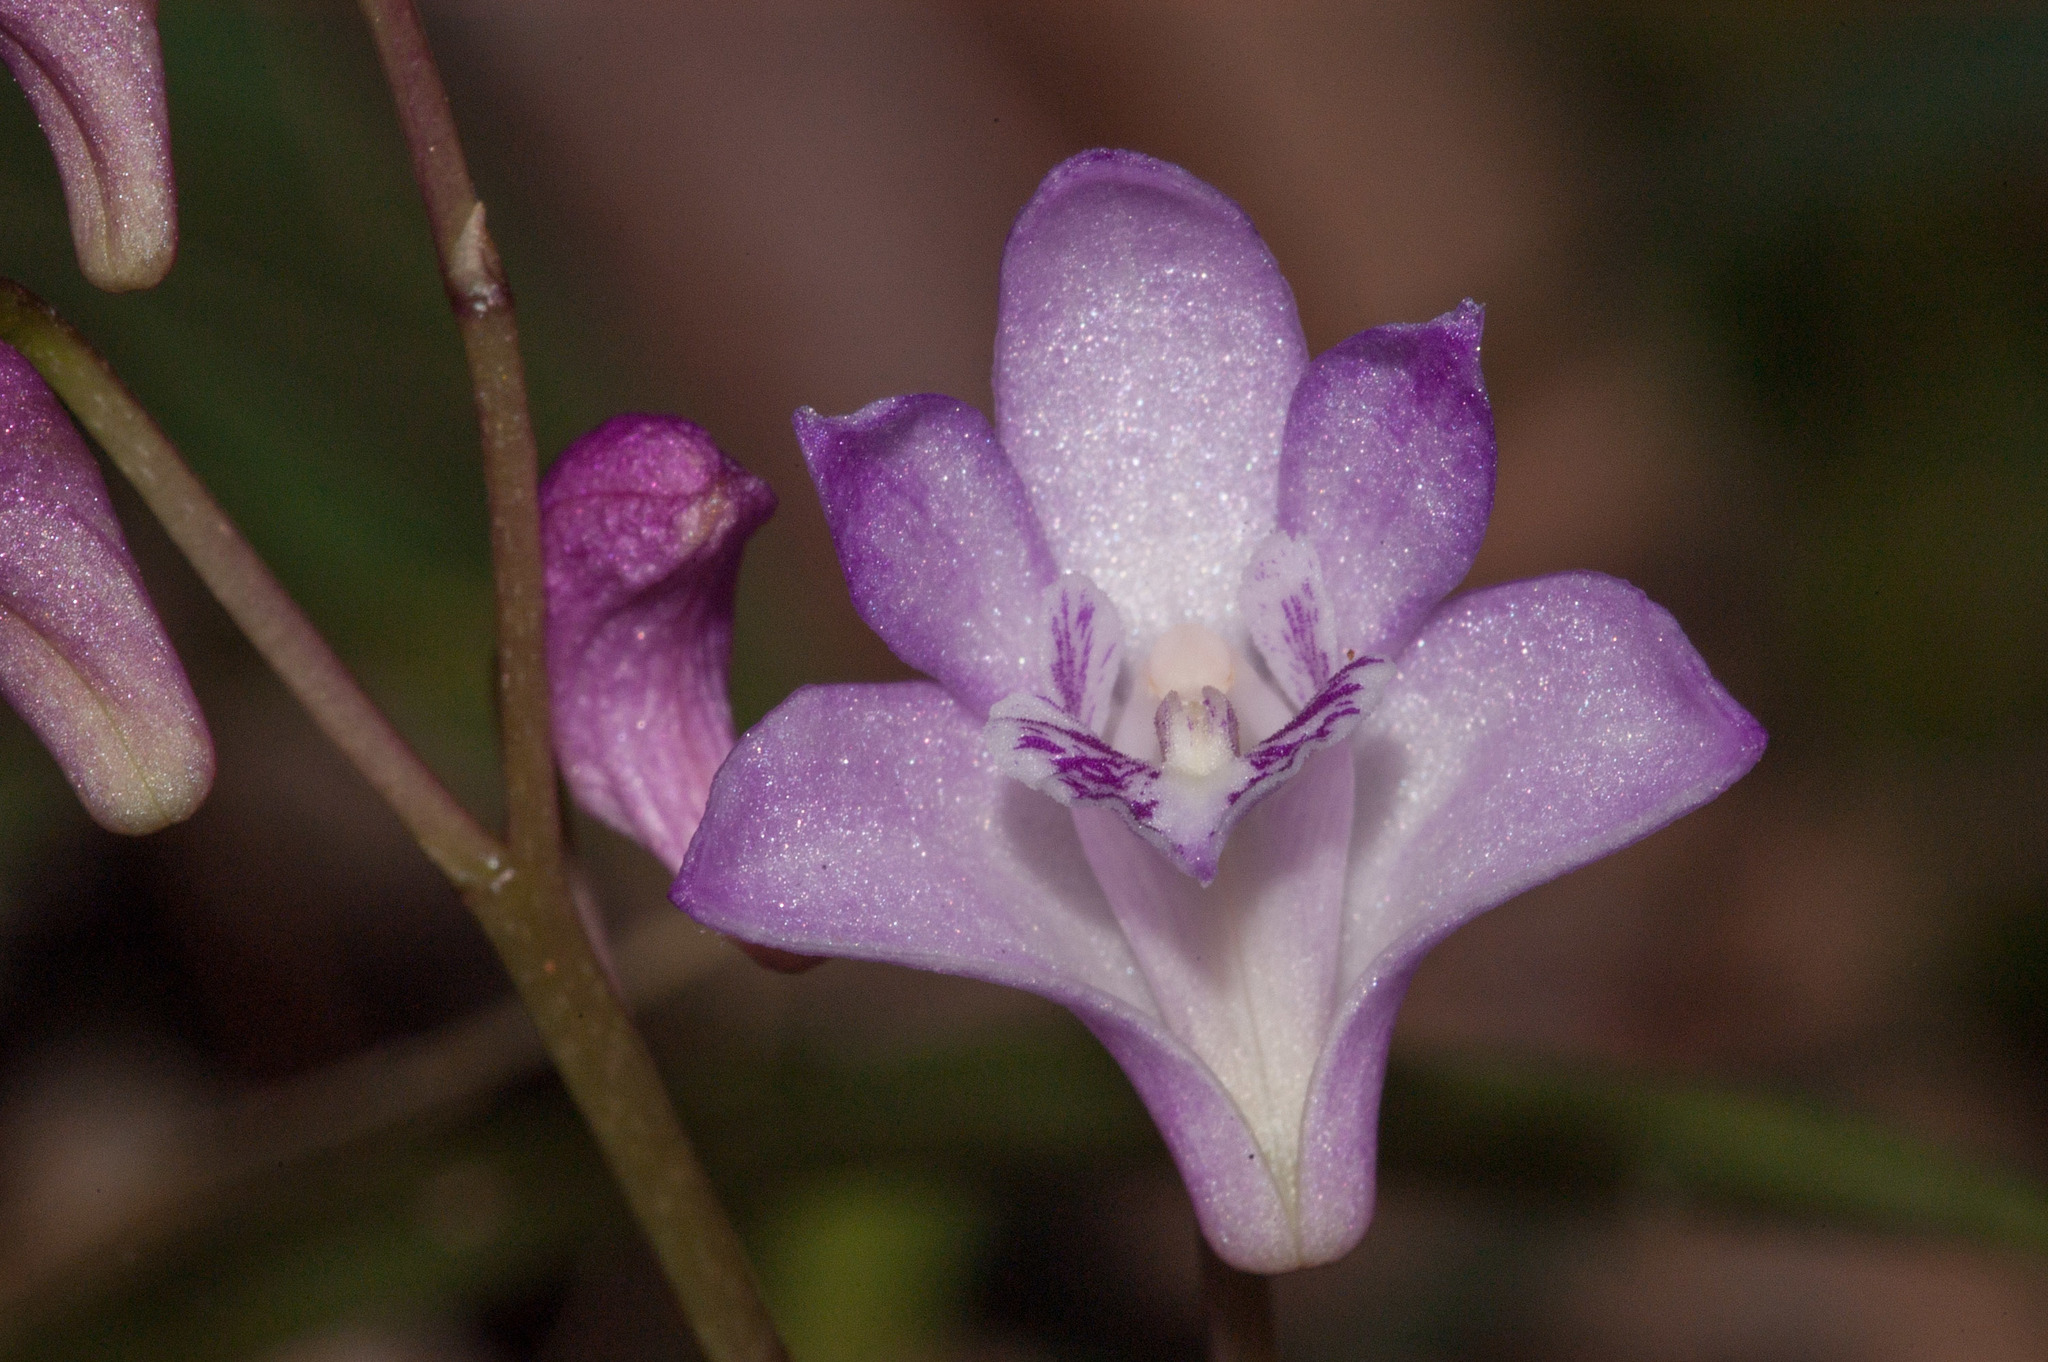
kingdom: Plantae
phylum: Tracheophyta
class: Liliopsida
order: Asparagales
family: Orchidaceae
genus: Dendrobium
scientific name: Dendrobium kingianum
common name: Pink rock orchid
